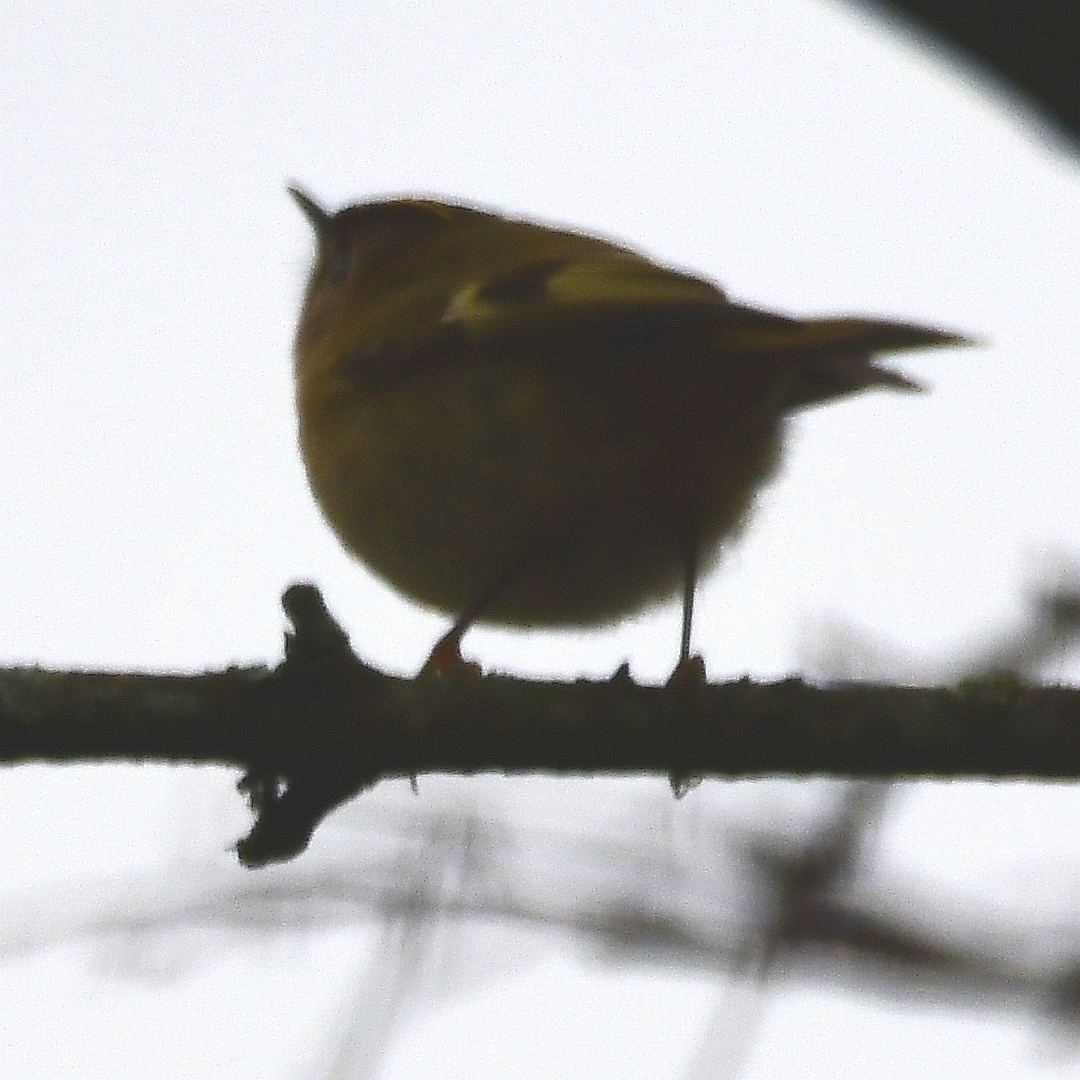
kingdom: Animalia
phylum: Chordata
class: Aves
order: Passeriformes
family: Regulidae
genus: Regulus
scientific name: Regulus regulus
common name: Goldcrest
